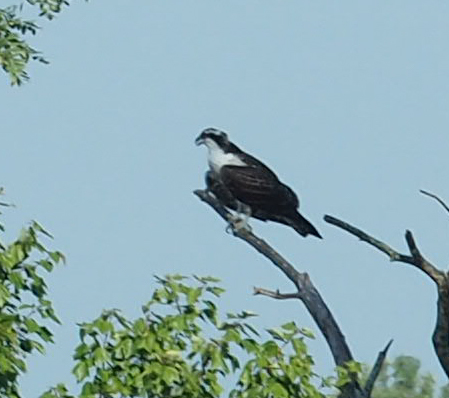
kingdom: Animalia
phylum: Chordata
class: Aves
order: Accipitriformes
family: Pandionidae
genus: Pandion
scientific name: Pandion haliaetus
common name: Osprey
